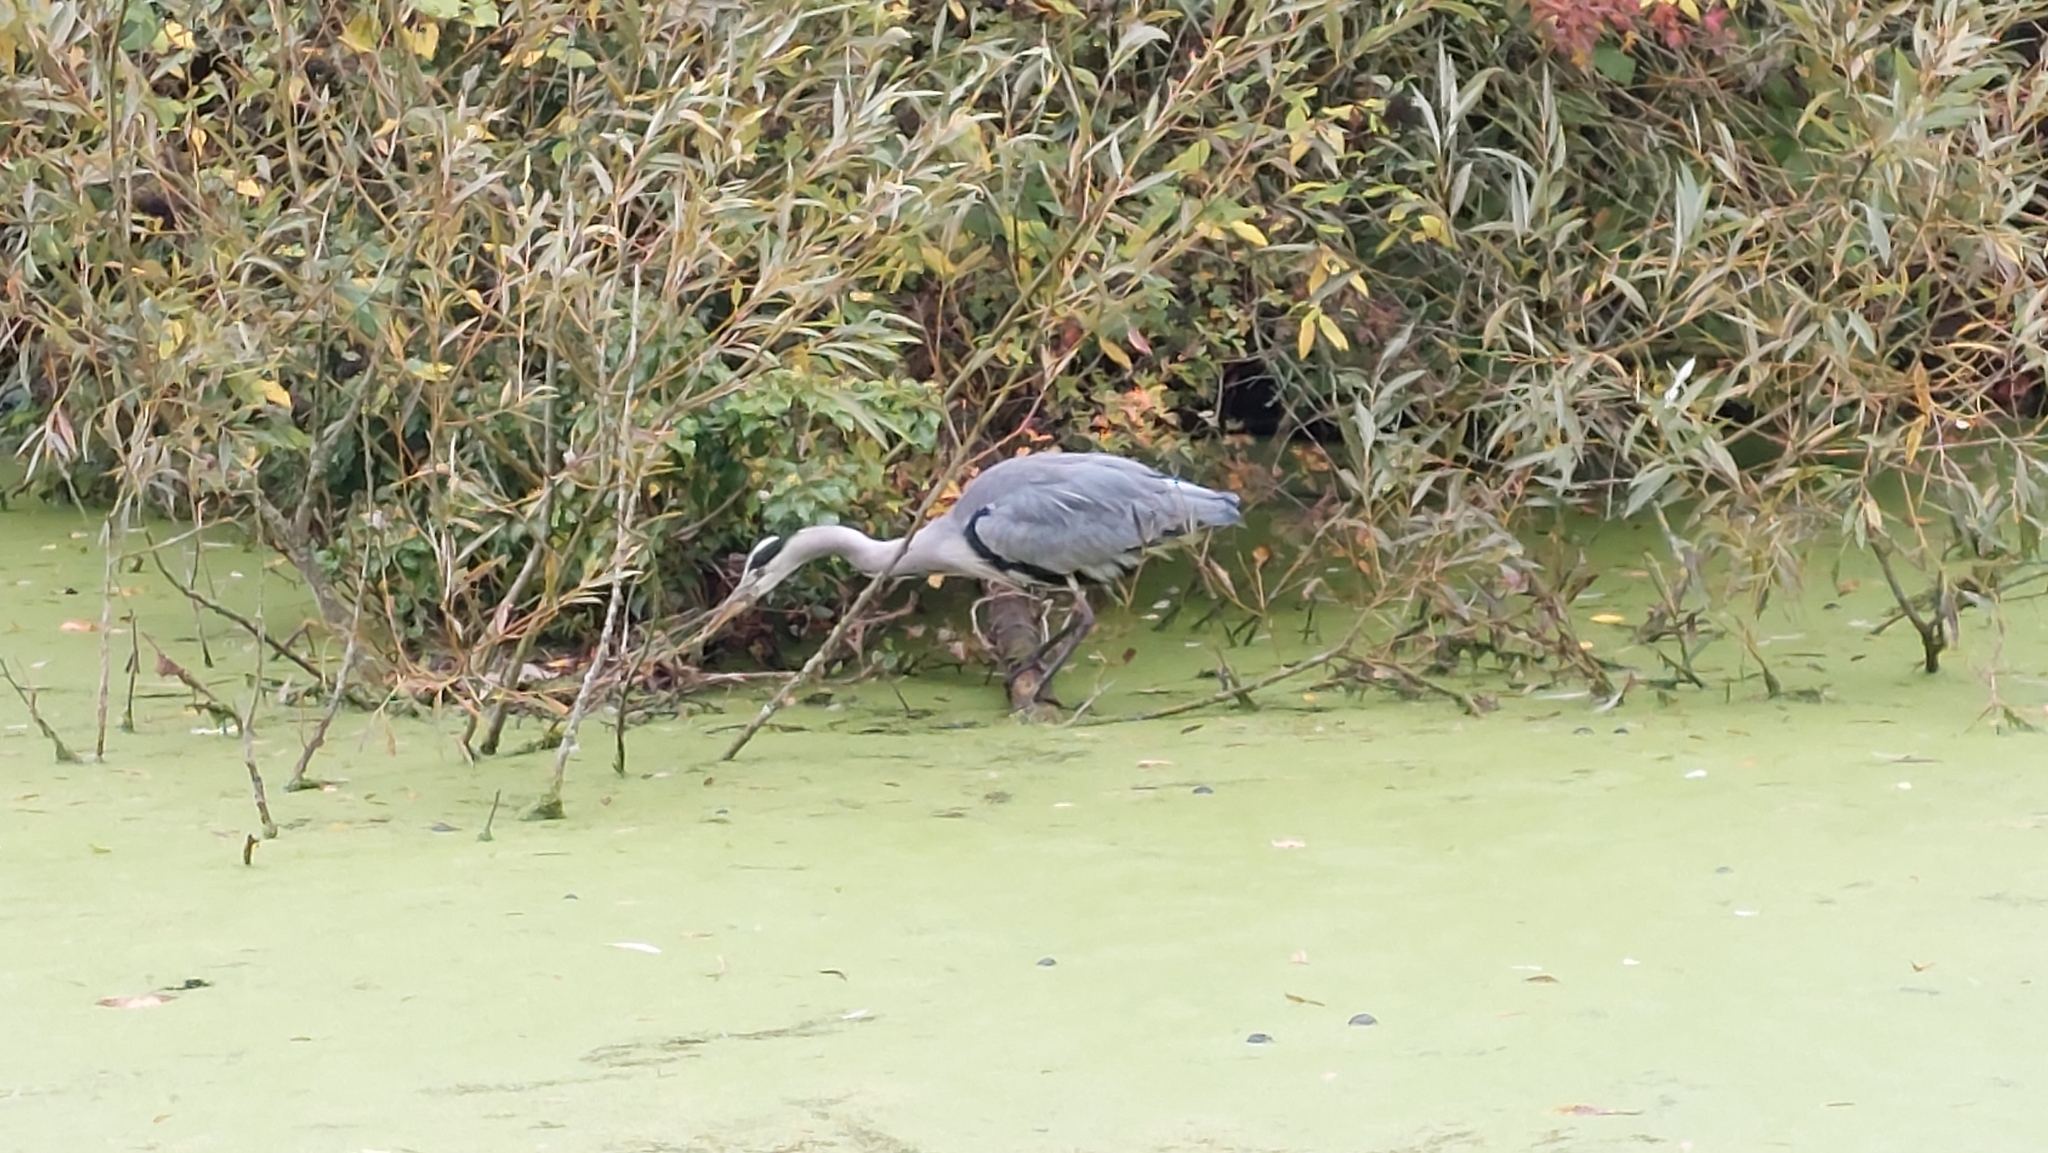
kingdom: Animalia
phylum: Chordata
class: Aves
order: Pelecaniformes
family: Ardeidae
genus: Ardea
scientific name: Ardea cinerea
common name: Grey heron
